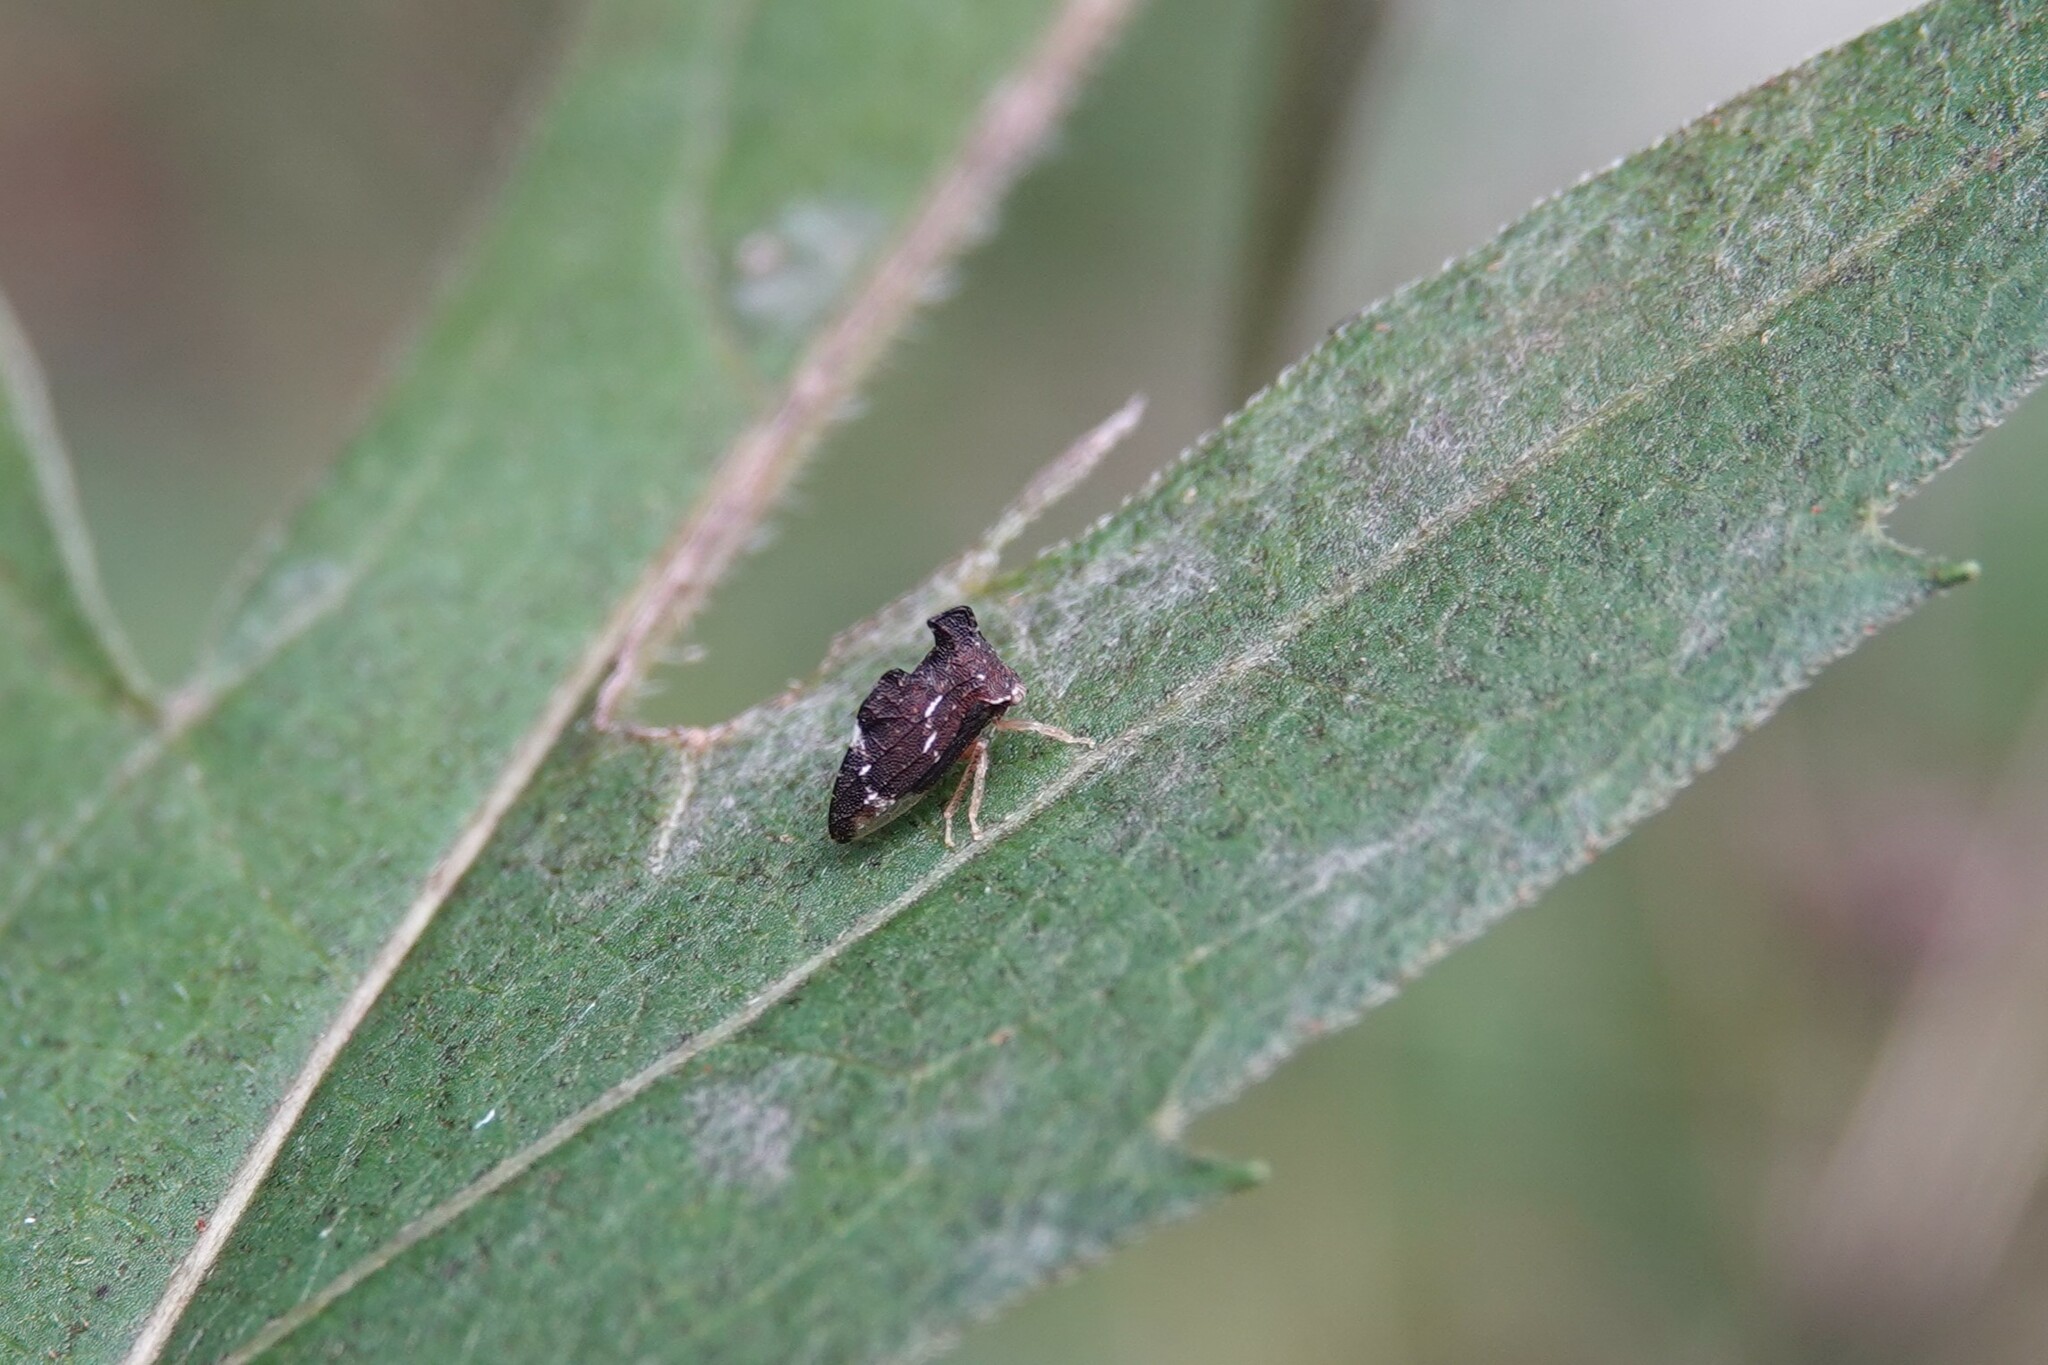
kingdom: Animalia
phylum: Arthropoda
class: Insecta
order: Hemiptera
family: Membracidae
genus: Entylia
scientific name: Entylia carinata
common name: Keeled treehopper
